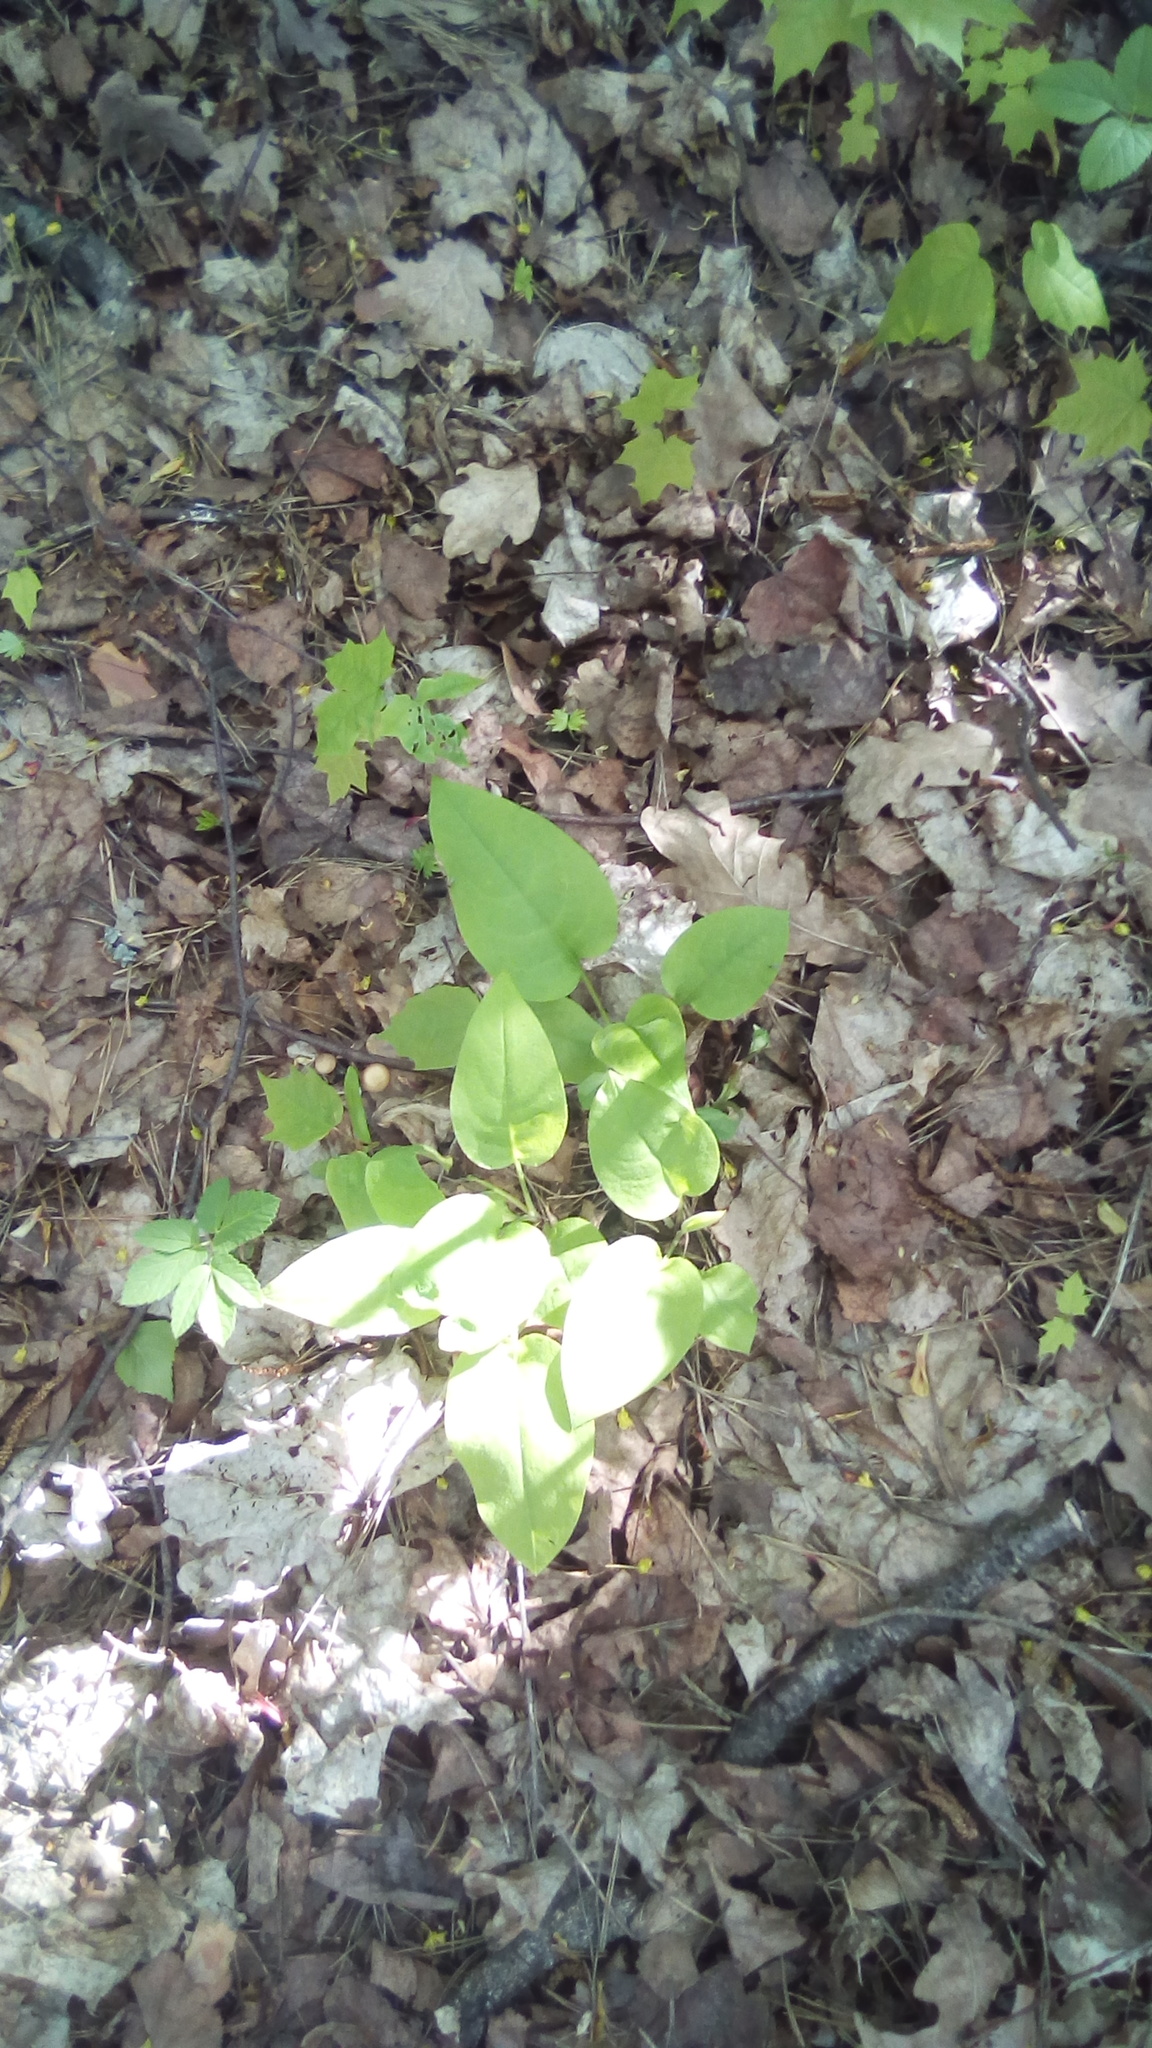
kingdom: Plantae
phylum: Tracheophyta
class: Magnoliopsida
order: Boraginales
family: Boraginaceae
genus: Pulmonaria
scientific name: Pulmonaria obscura
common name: Suffolk lungwort
